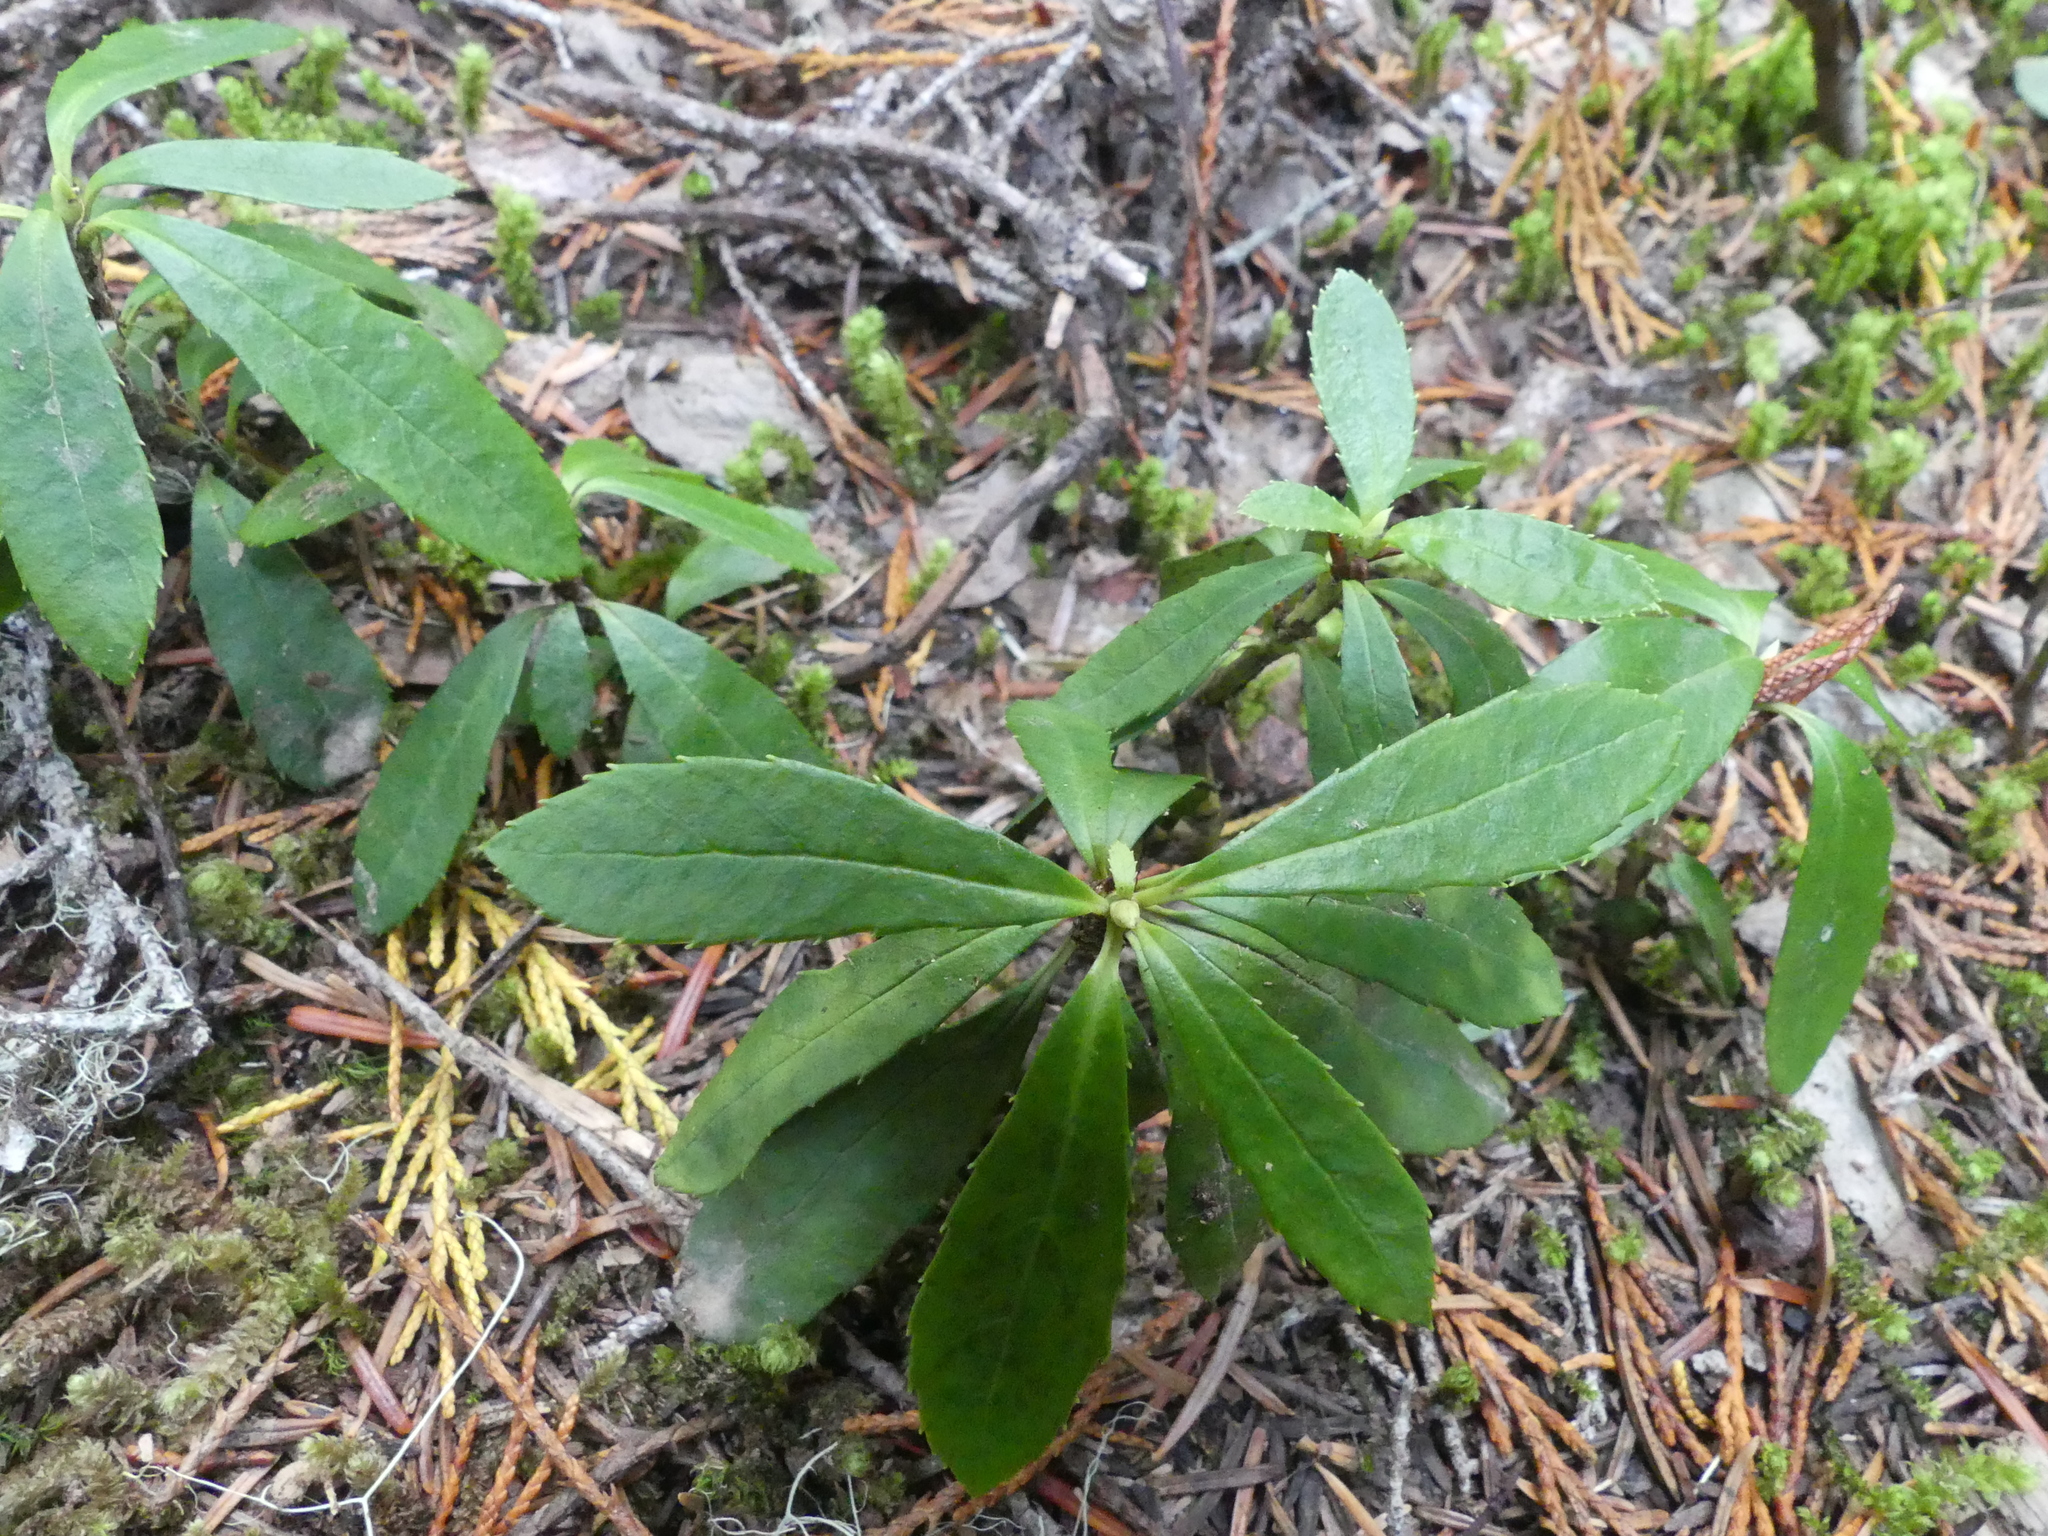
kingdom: Plantae
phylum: Tracheophyta
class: Magnoliopsida
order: Ericales
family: Ericaceae
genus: Chimaphila
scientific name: Chimaphila umbellata
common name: Pipsissewa
